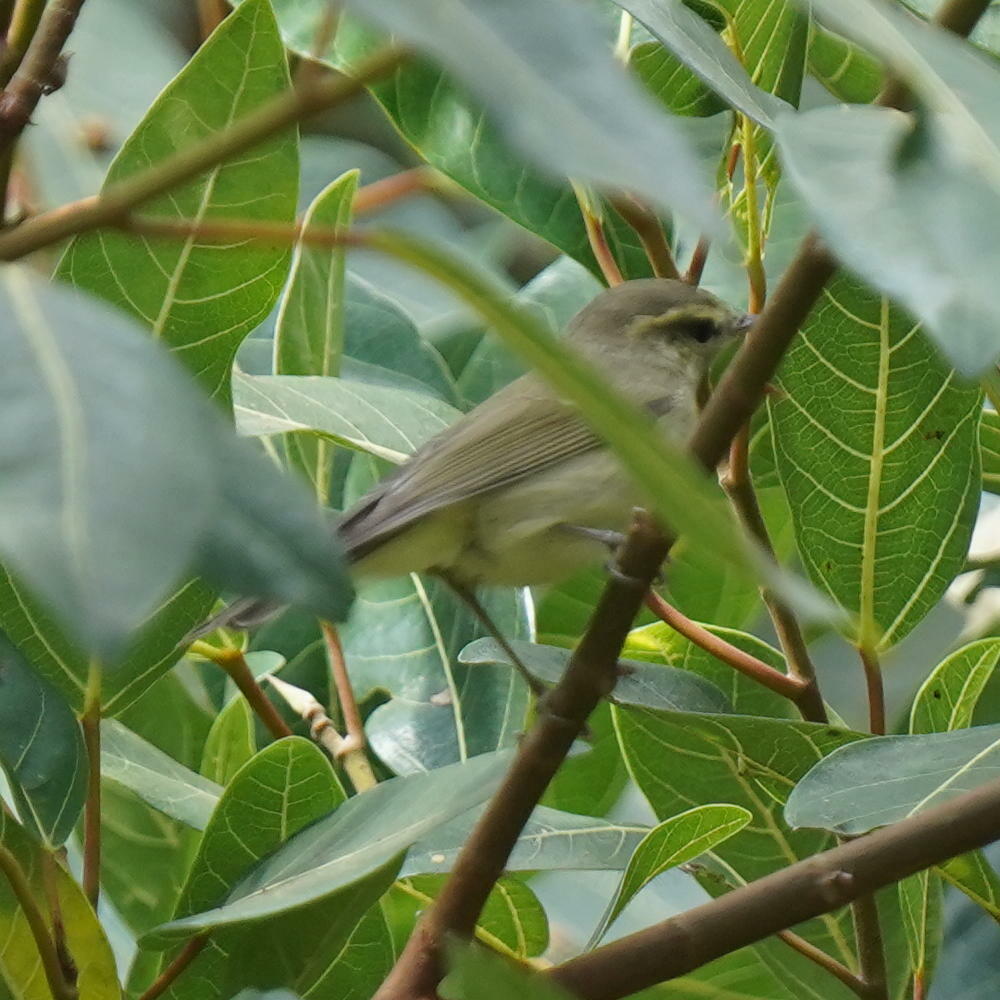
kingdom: Animalia
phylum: Chordata
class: Aves
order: Passeriformes
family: Phylloscopidae
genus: Phylloscopus
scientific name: Phylloscopus trochiloides
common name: Greenish warbler
